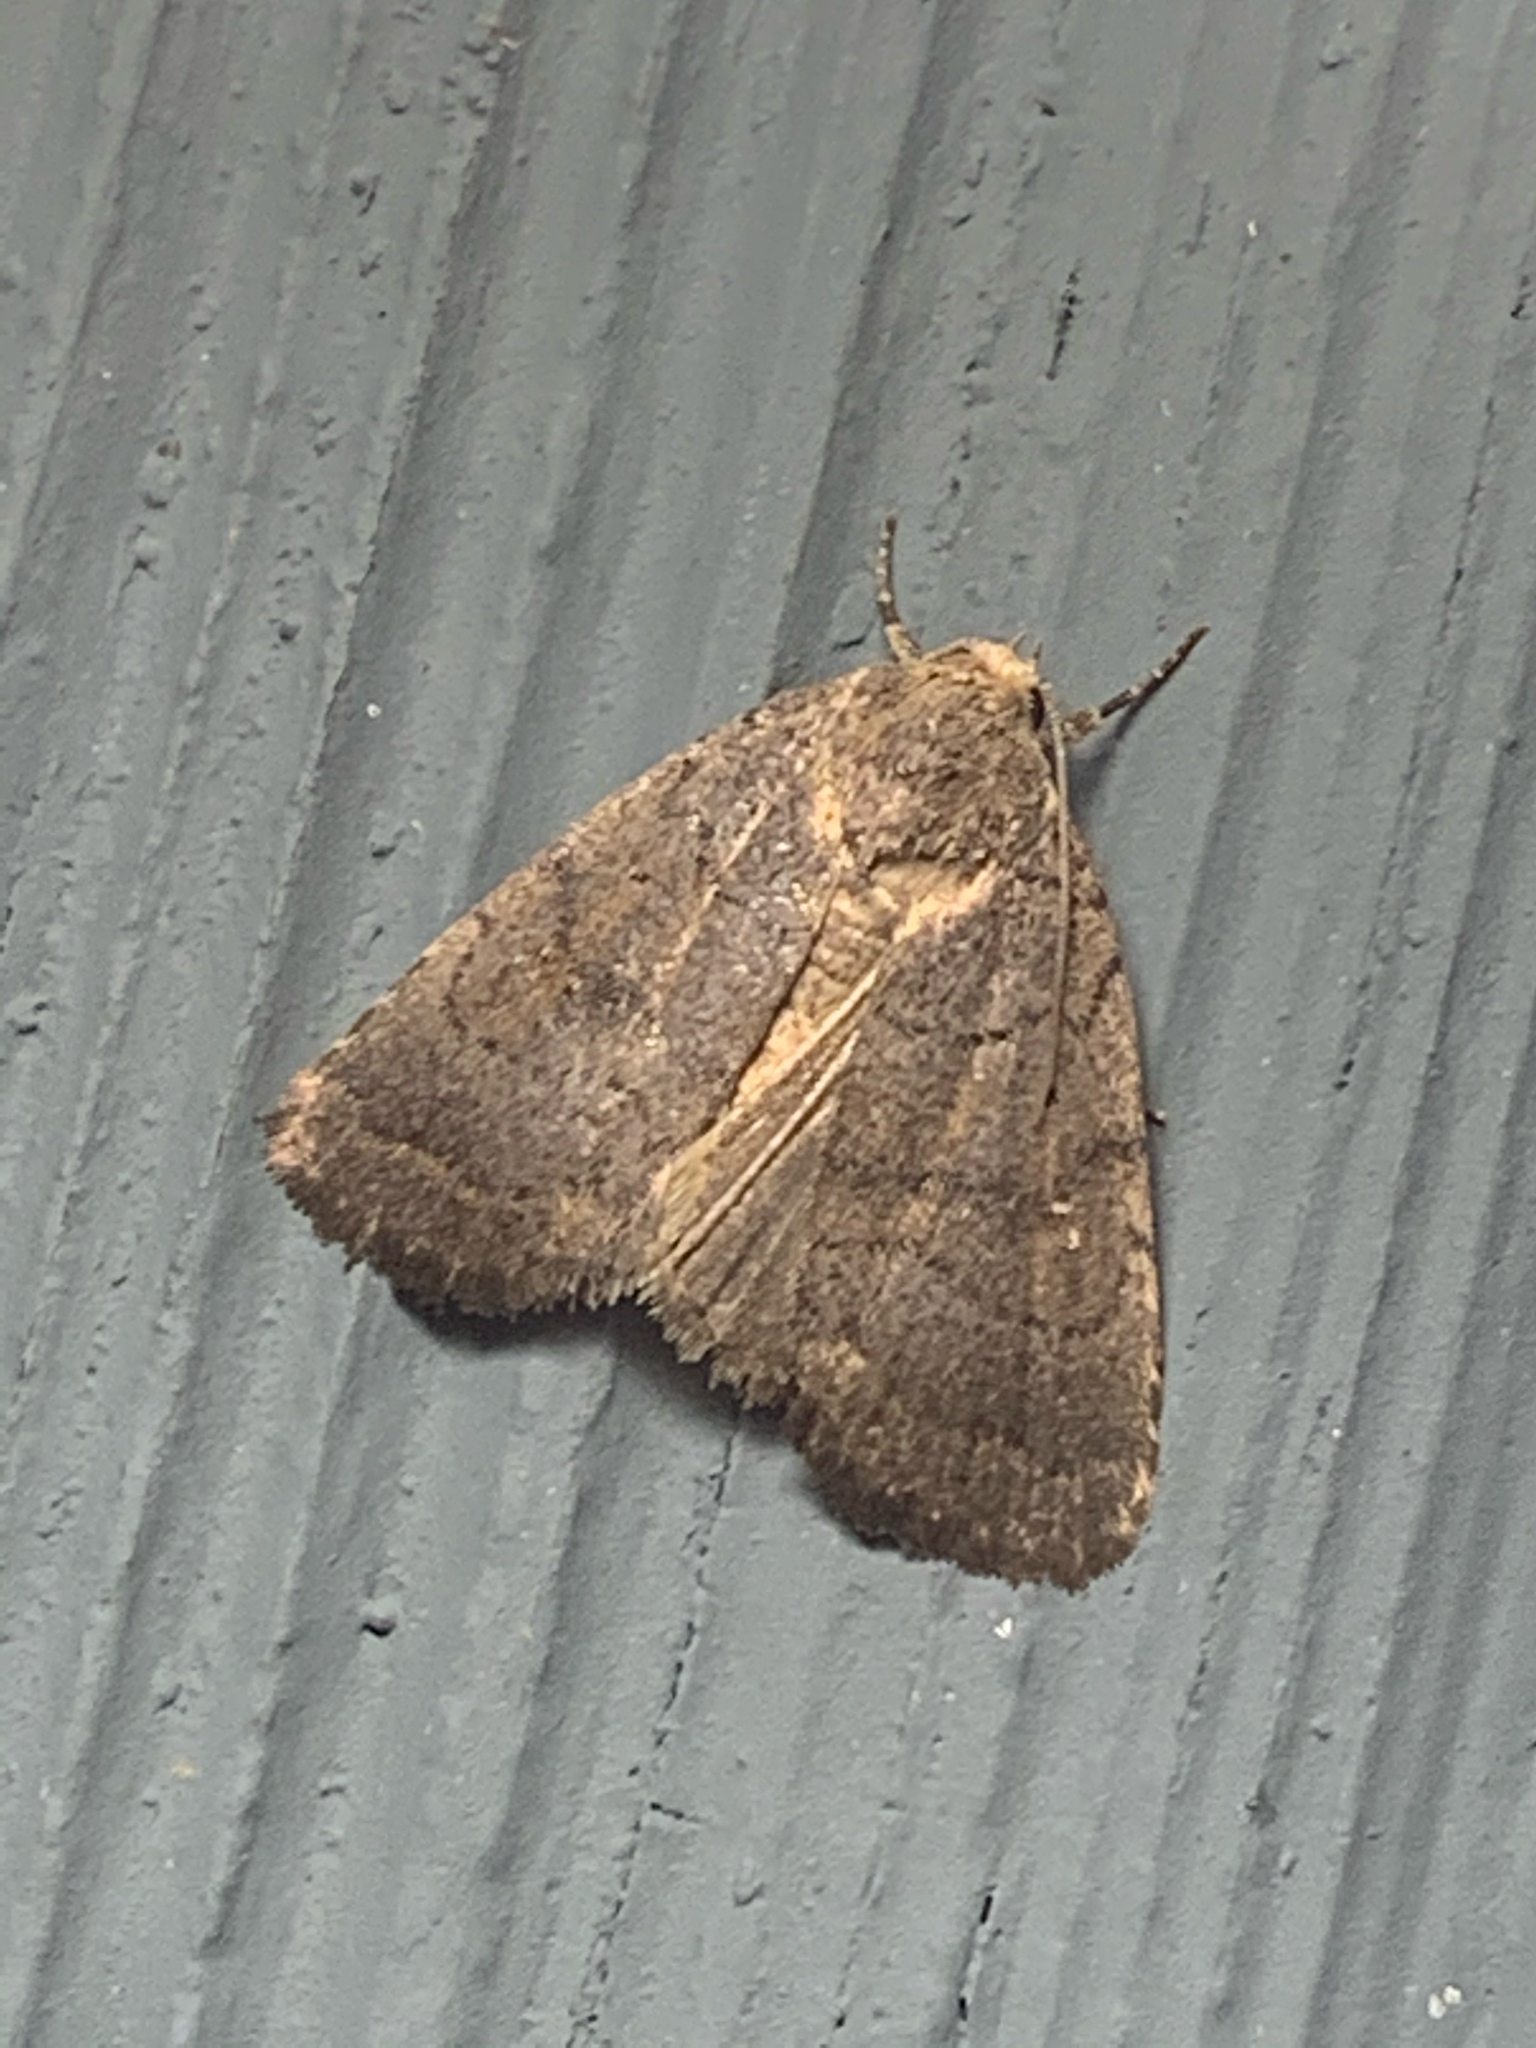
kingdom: Animalia
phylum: Arthropoda
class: Insecta
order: Lepidoptera
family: Noctuidae
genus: Athetis
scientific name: Athetis tarda
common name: Slowpoke moth
